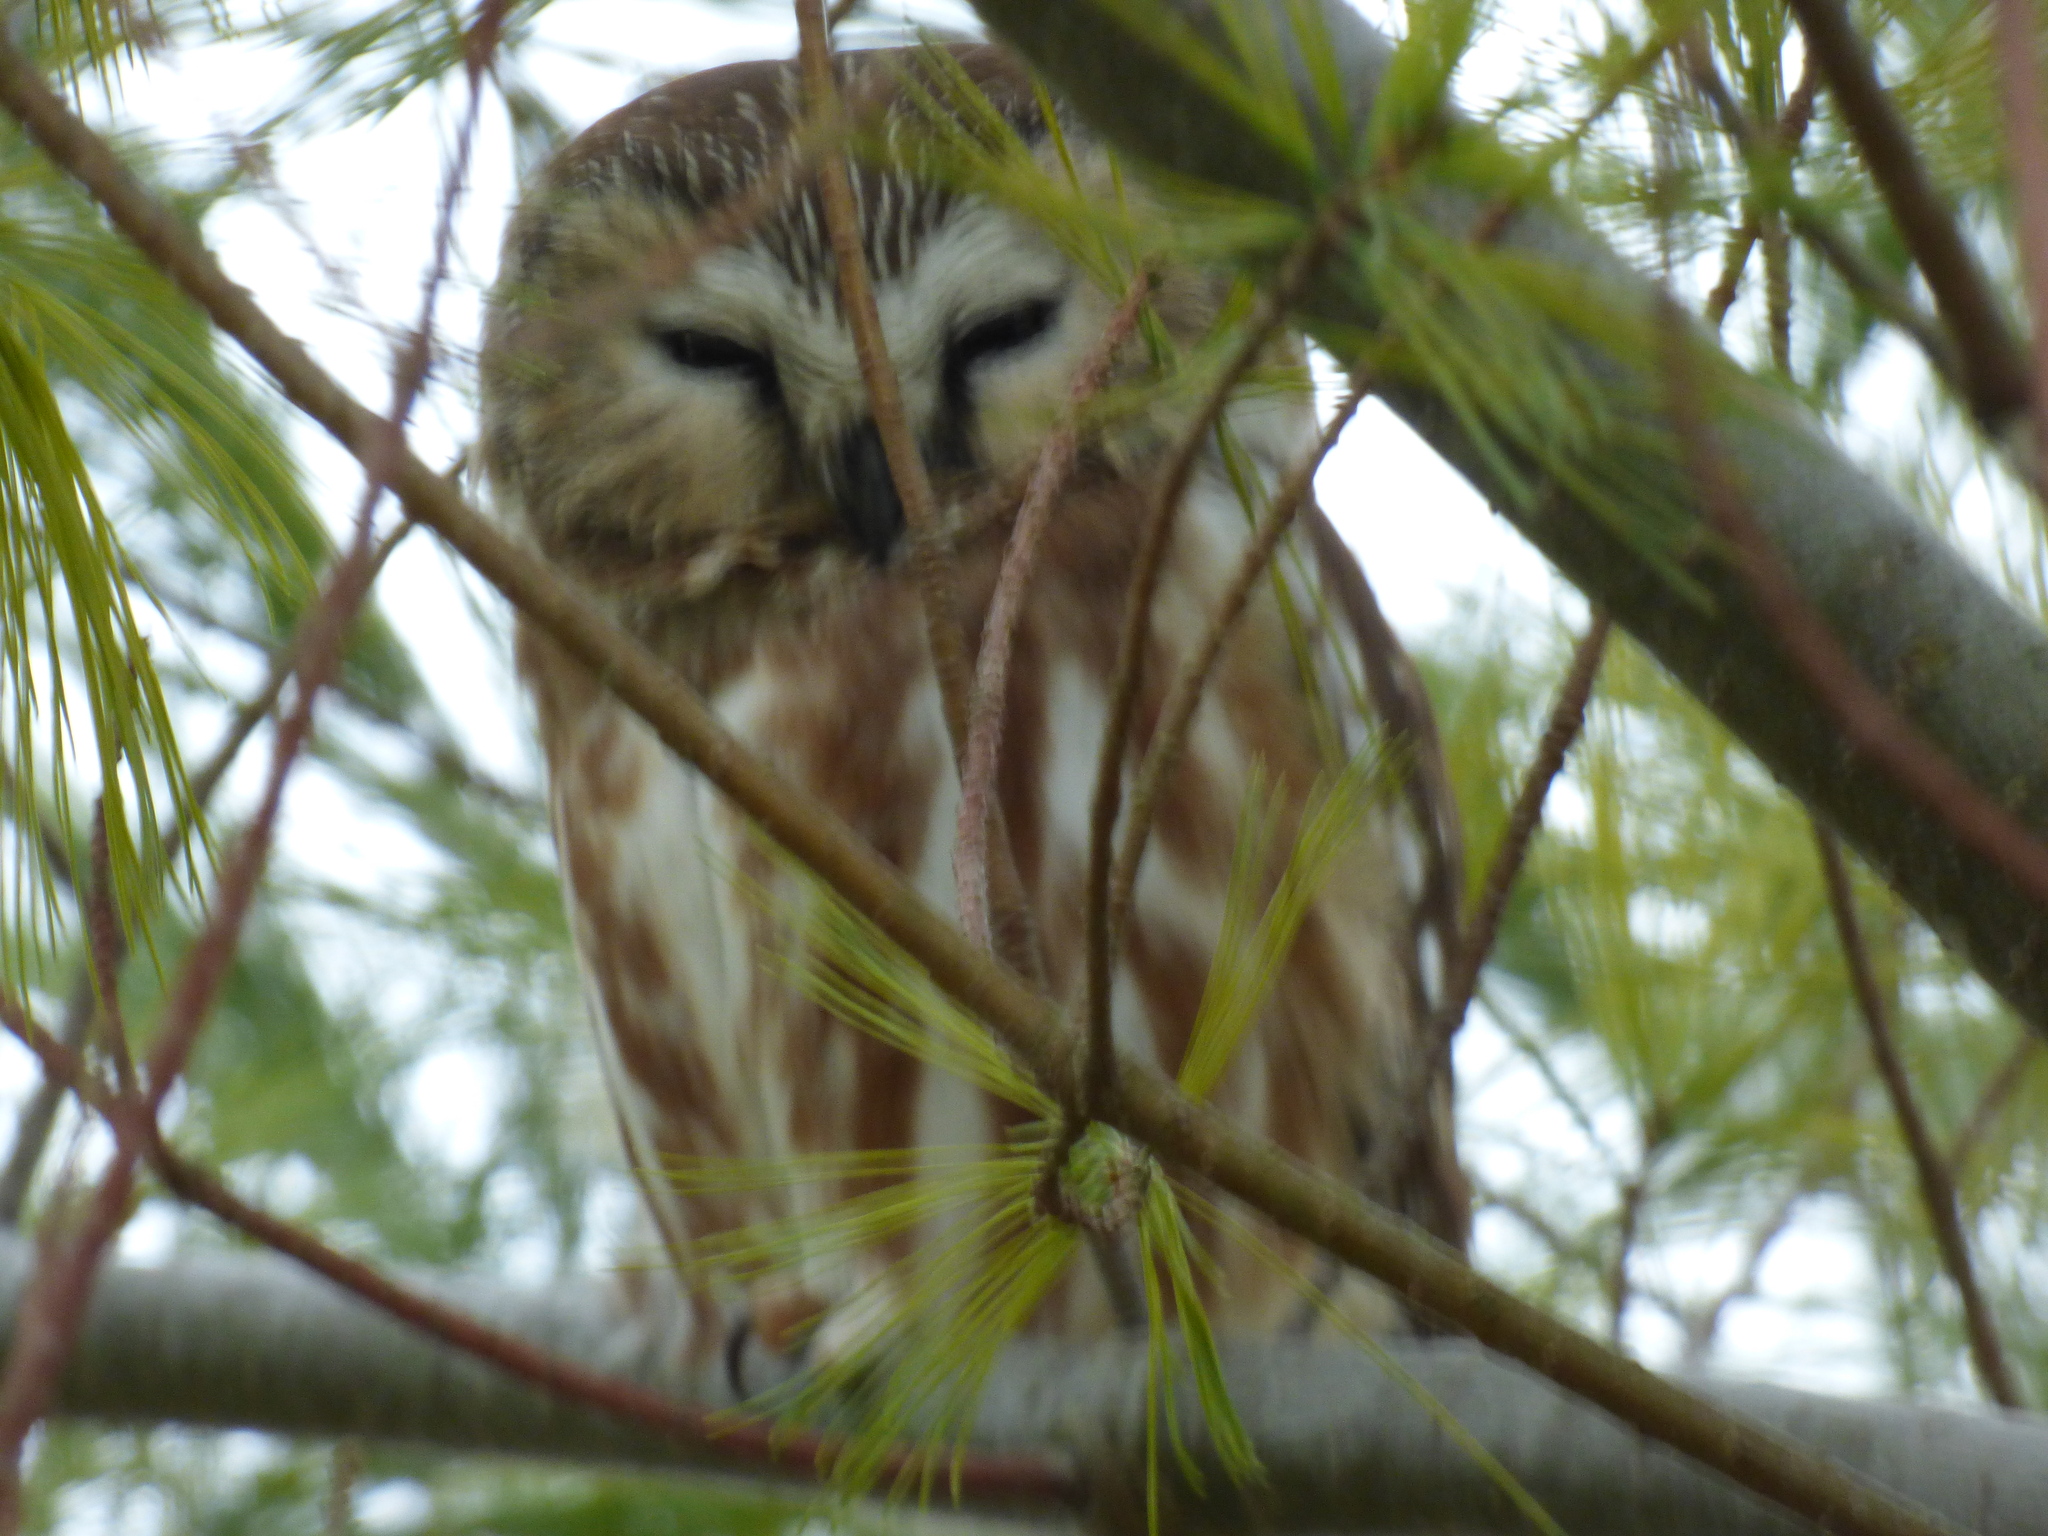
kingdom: Animalia
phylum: Chordata
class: Aves
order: Strigiformes
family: Strigidae
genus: Aegolius
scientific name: Aegolius acadicus
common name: Northern saw-whet owl
